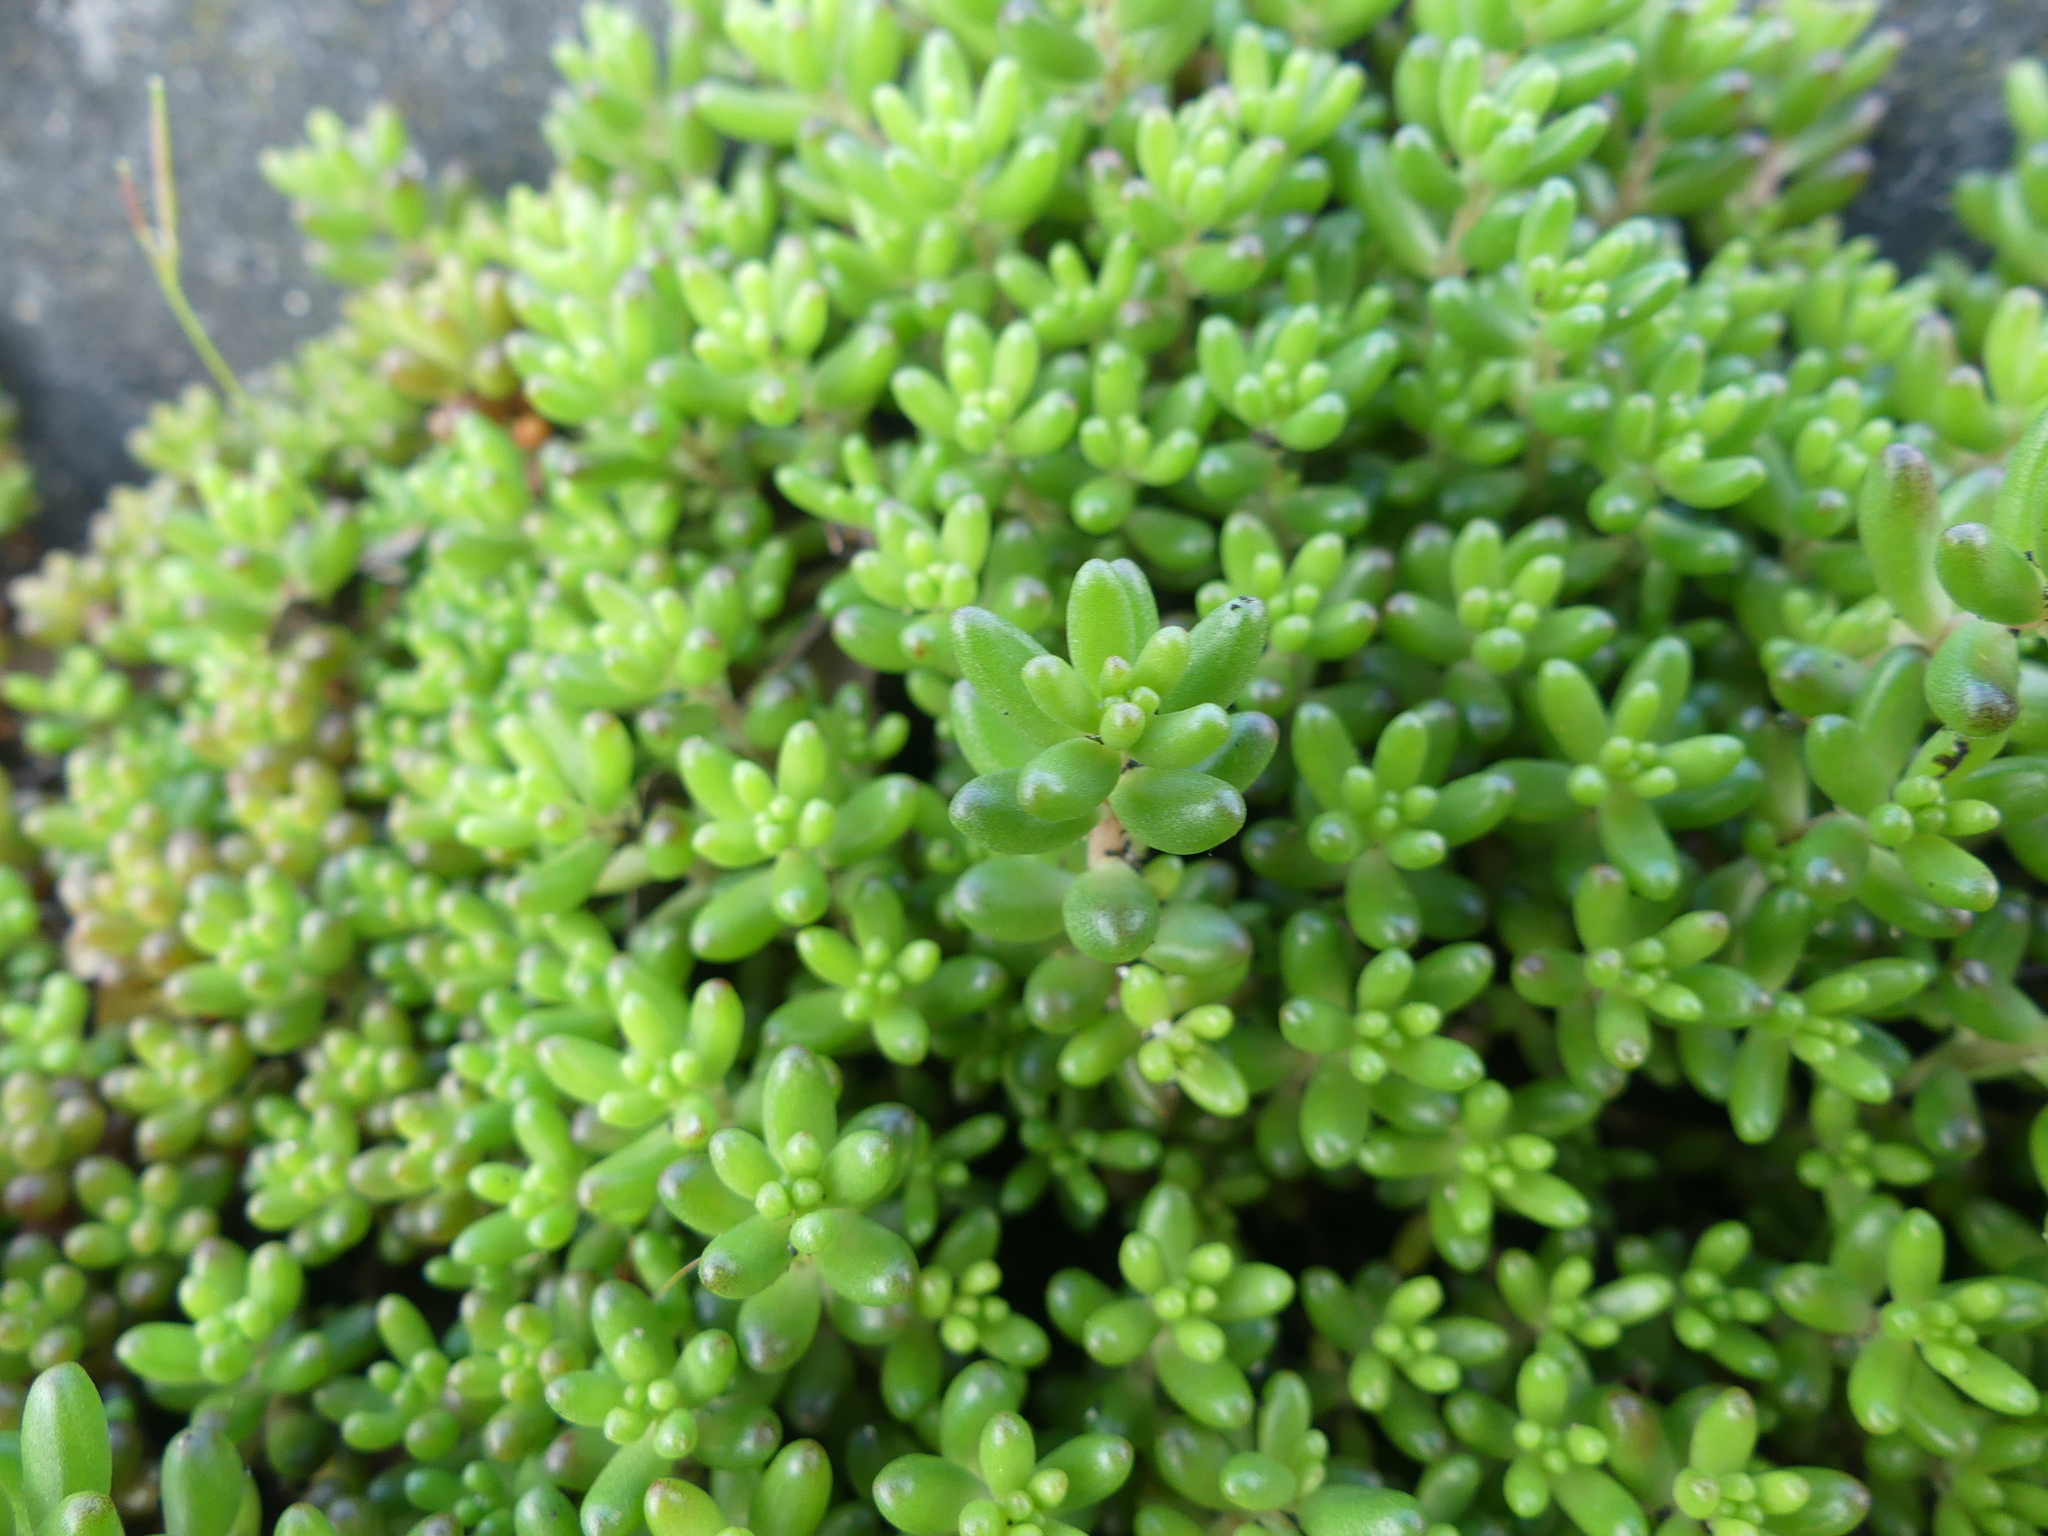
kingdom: Plantae
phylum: Tracheophyta
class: Magnoliopsida
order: Saxifragales
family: Crassulaceae
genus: Sedum
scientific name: Sedum album
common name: White stonecrop
